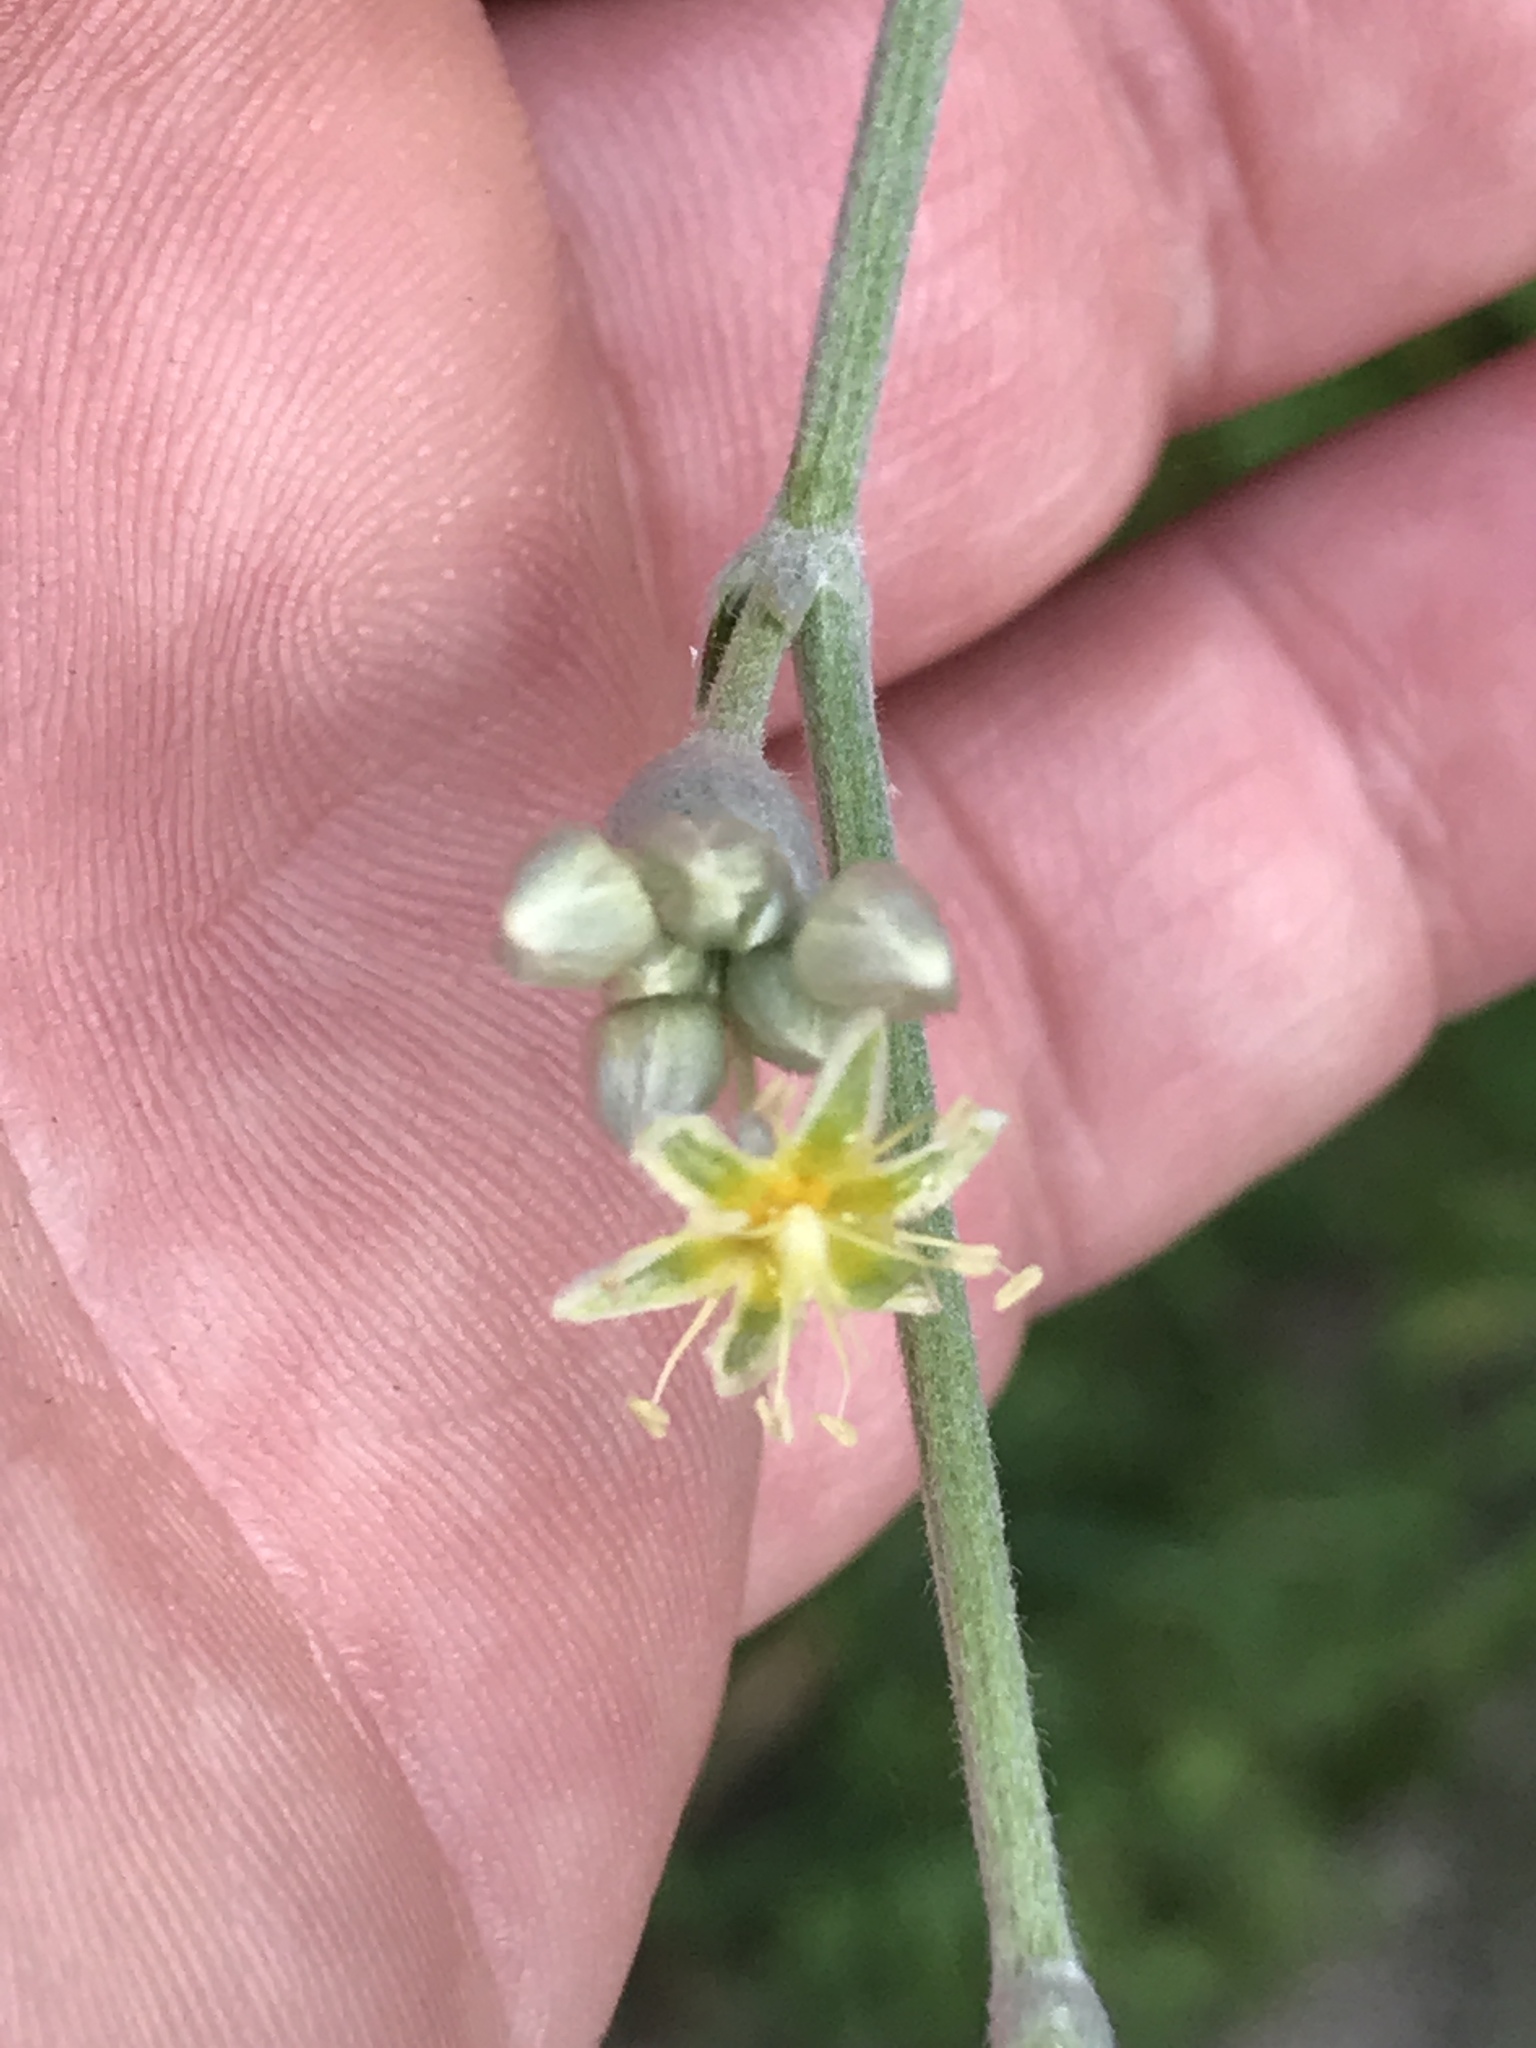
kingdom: Plantae
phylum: Tracheophyta
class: Magnoliopsida
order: Caryophyllales
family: Polygonaceae
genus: Eriogonum
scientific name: Eriogonum longifolium
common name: Longleaf wild buckwheat
